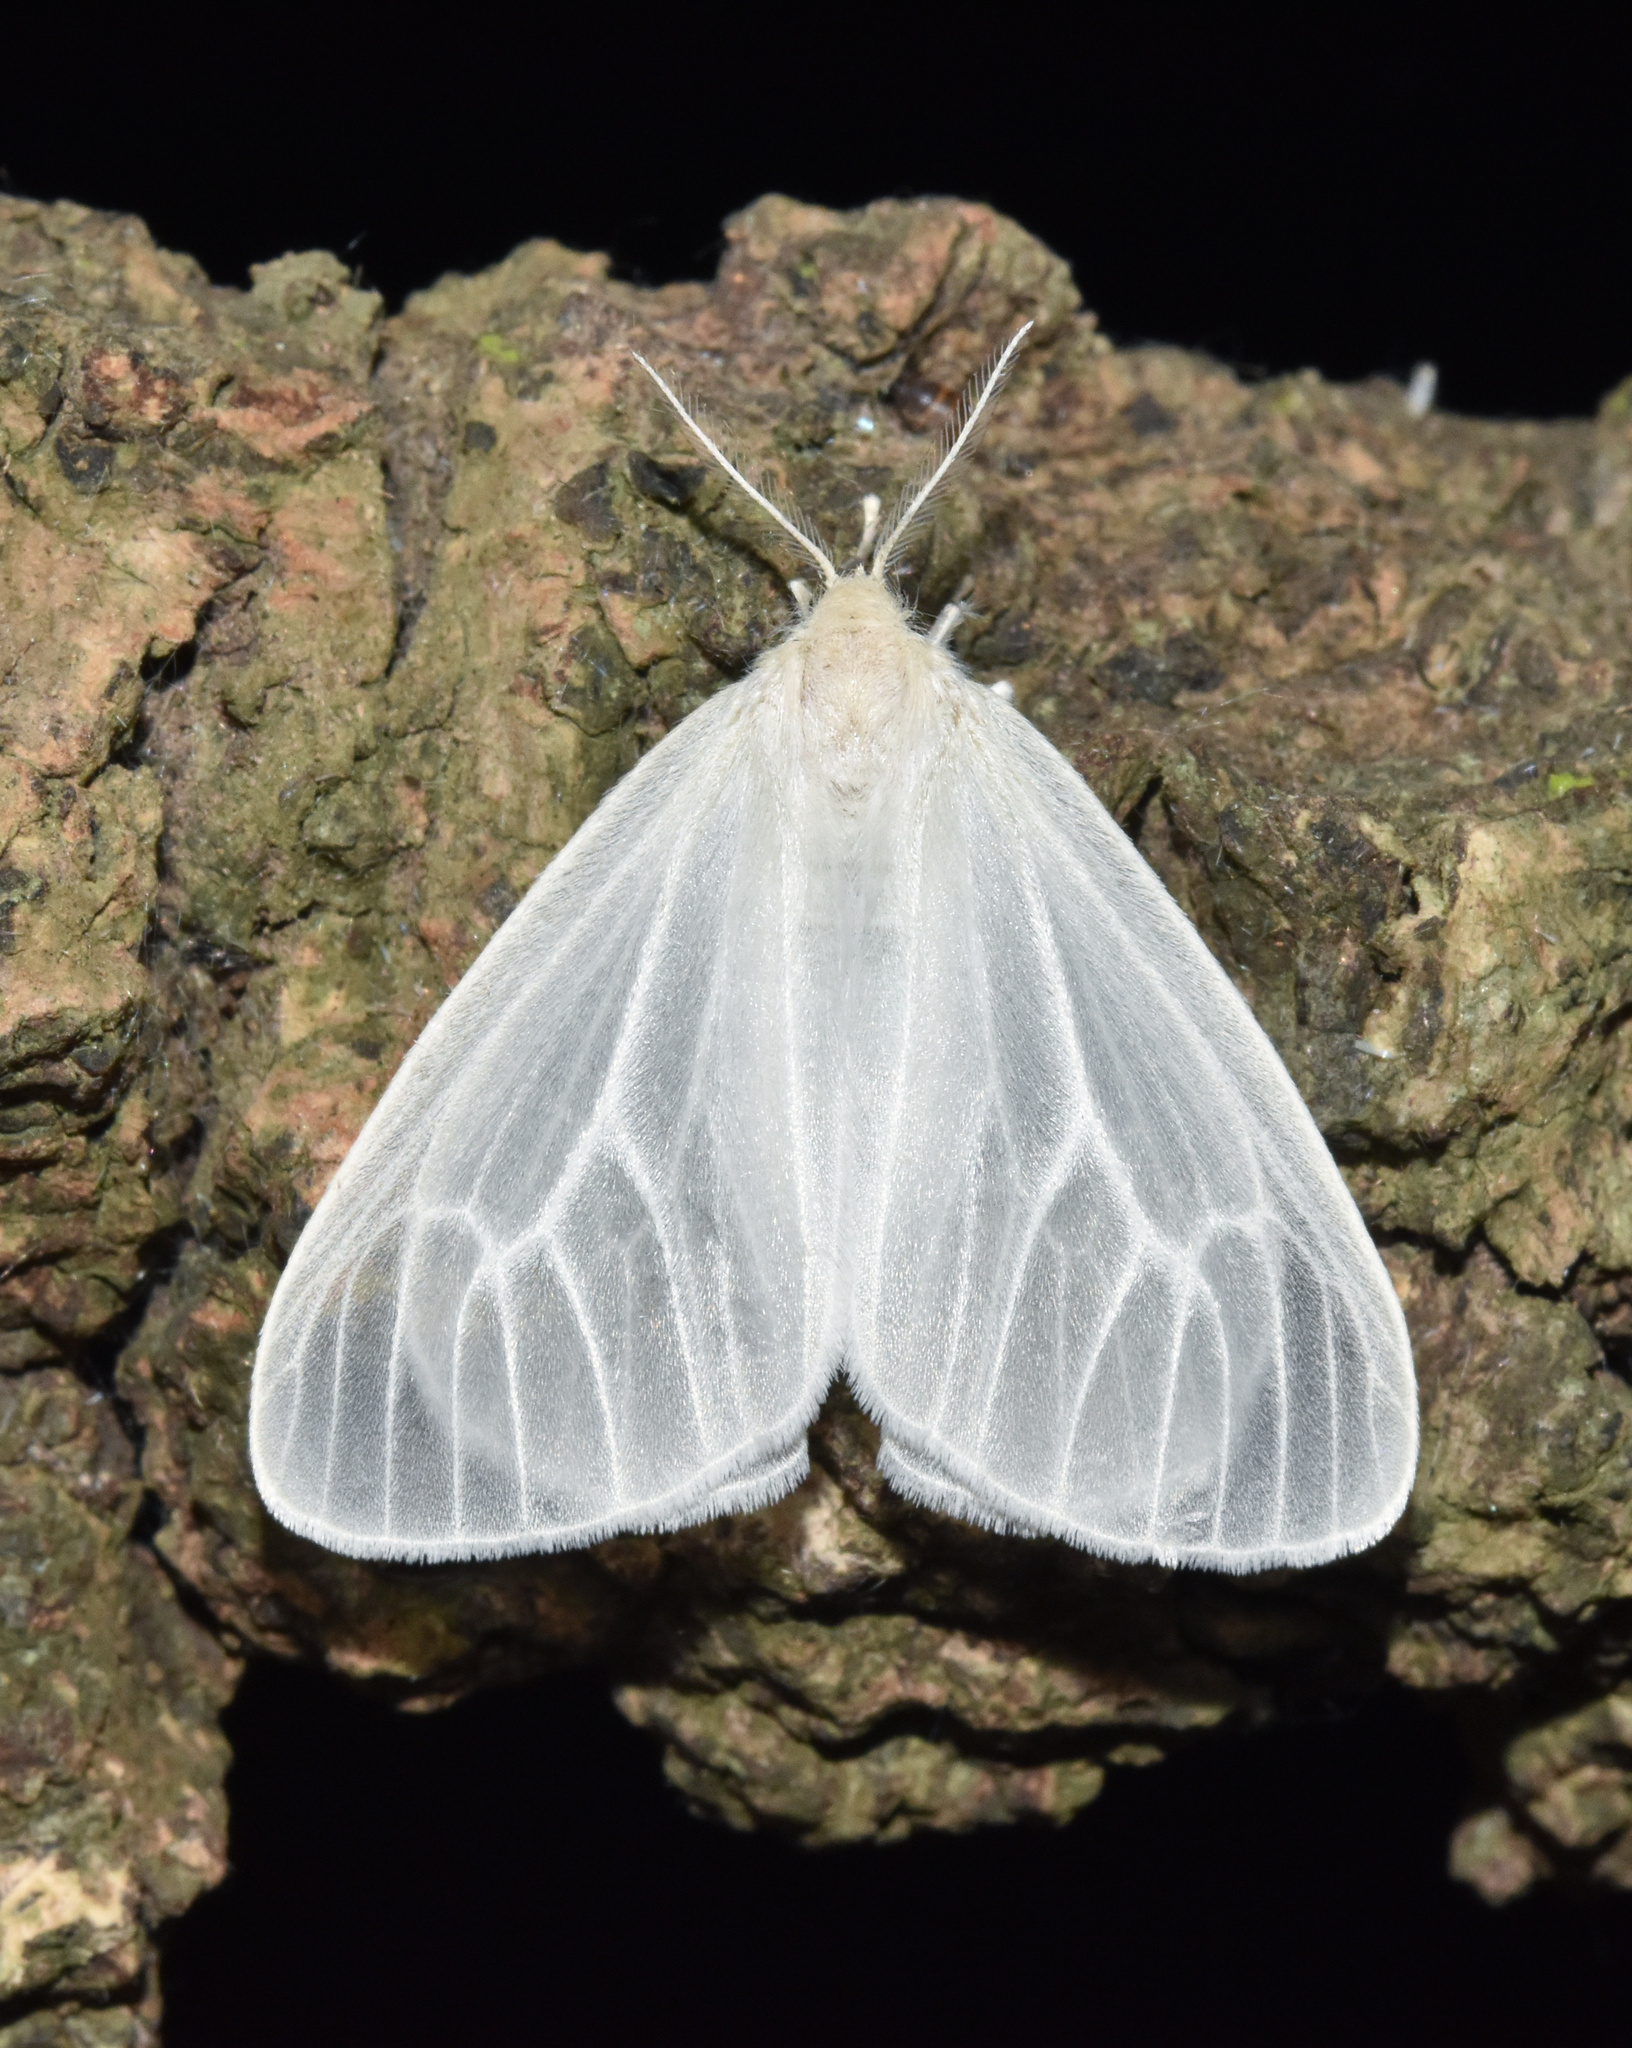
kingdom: Animalia
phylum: Arthropoda
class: Insecta
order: Lepidoptera
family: Erebidae
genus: Arctornis
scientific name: Arctornis melanocraspis
